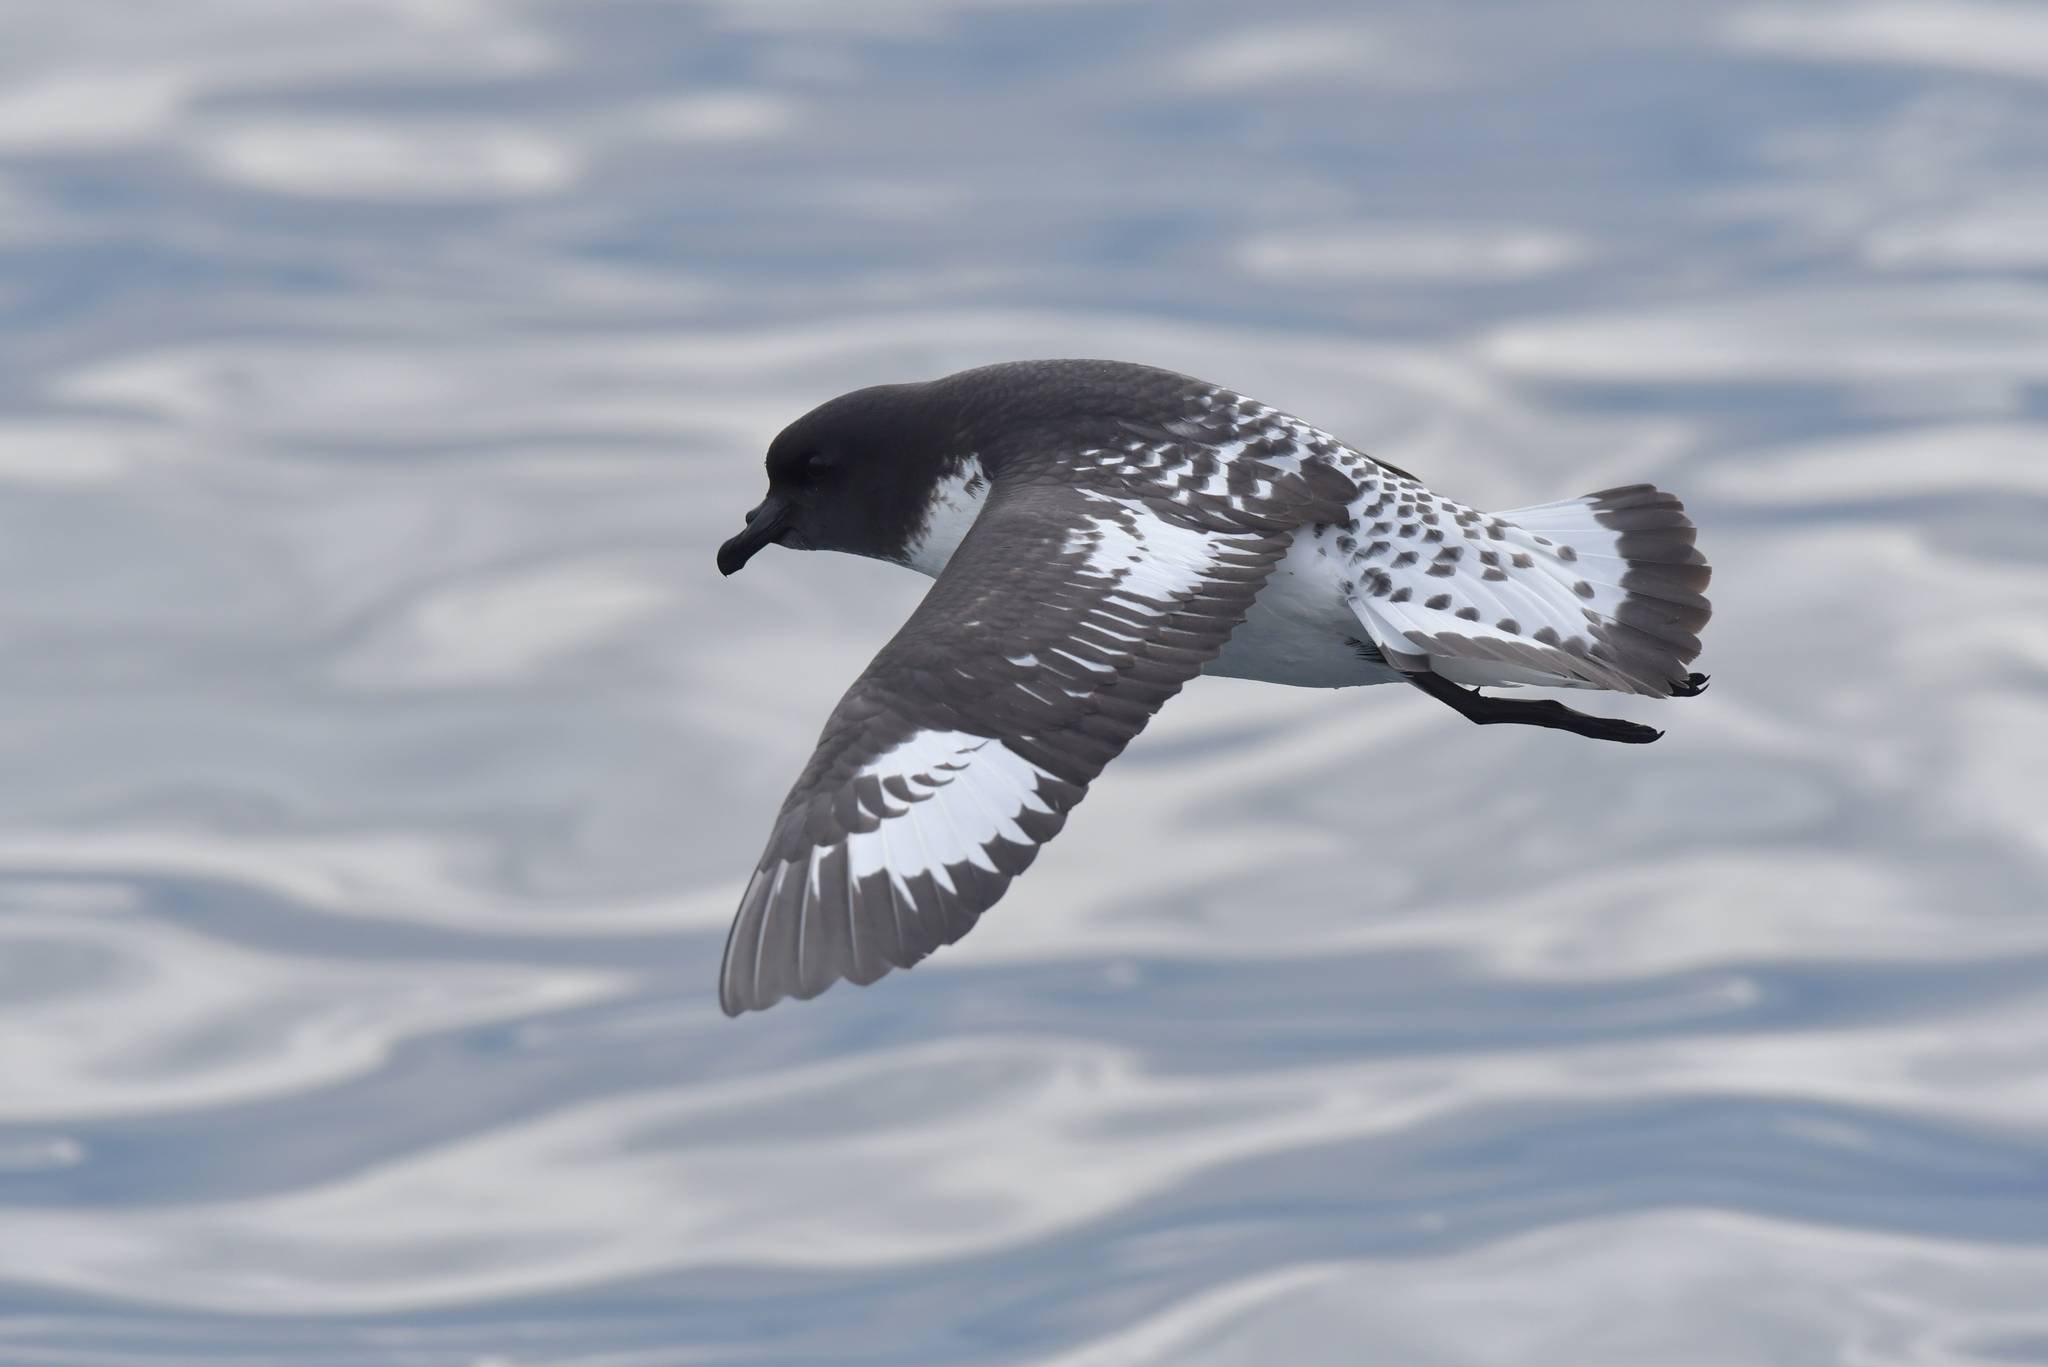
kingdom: Animalia
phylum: Chordata
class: Aves
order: Procellariiformes
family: Procellariidae
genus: Daption
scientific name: Daption capense
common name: Cape petrel
